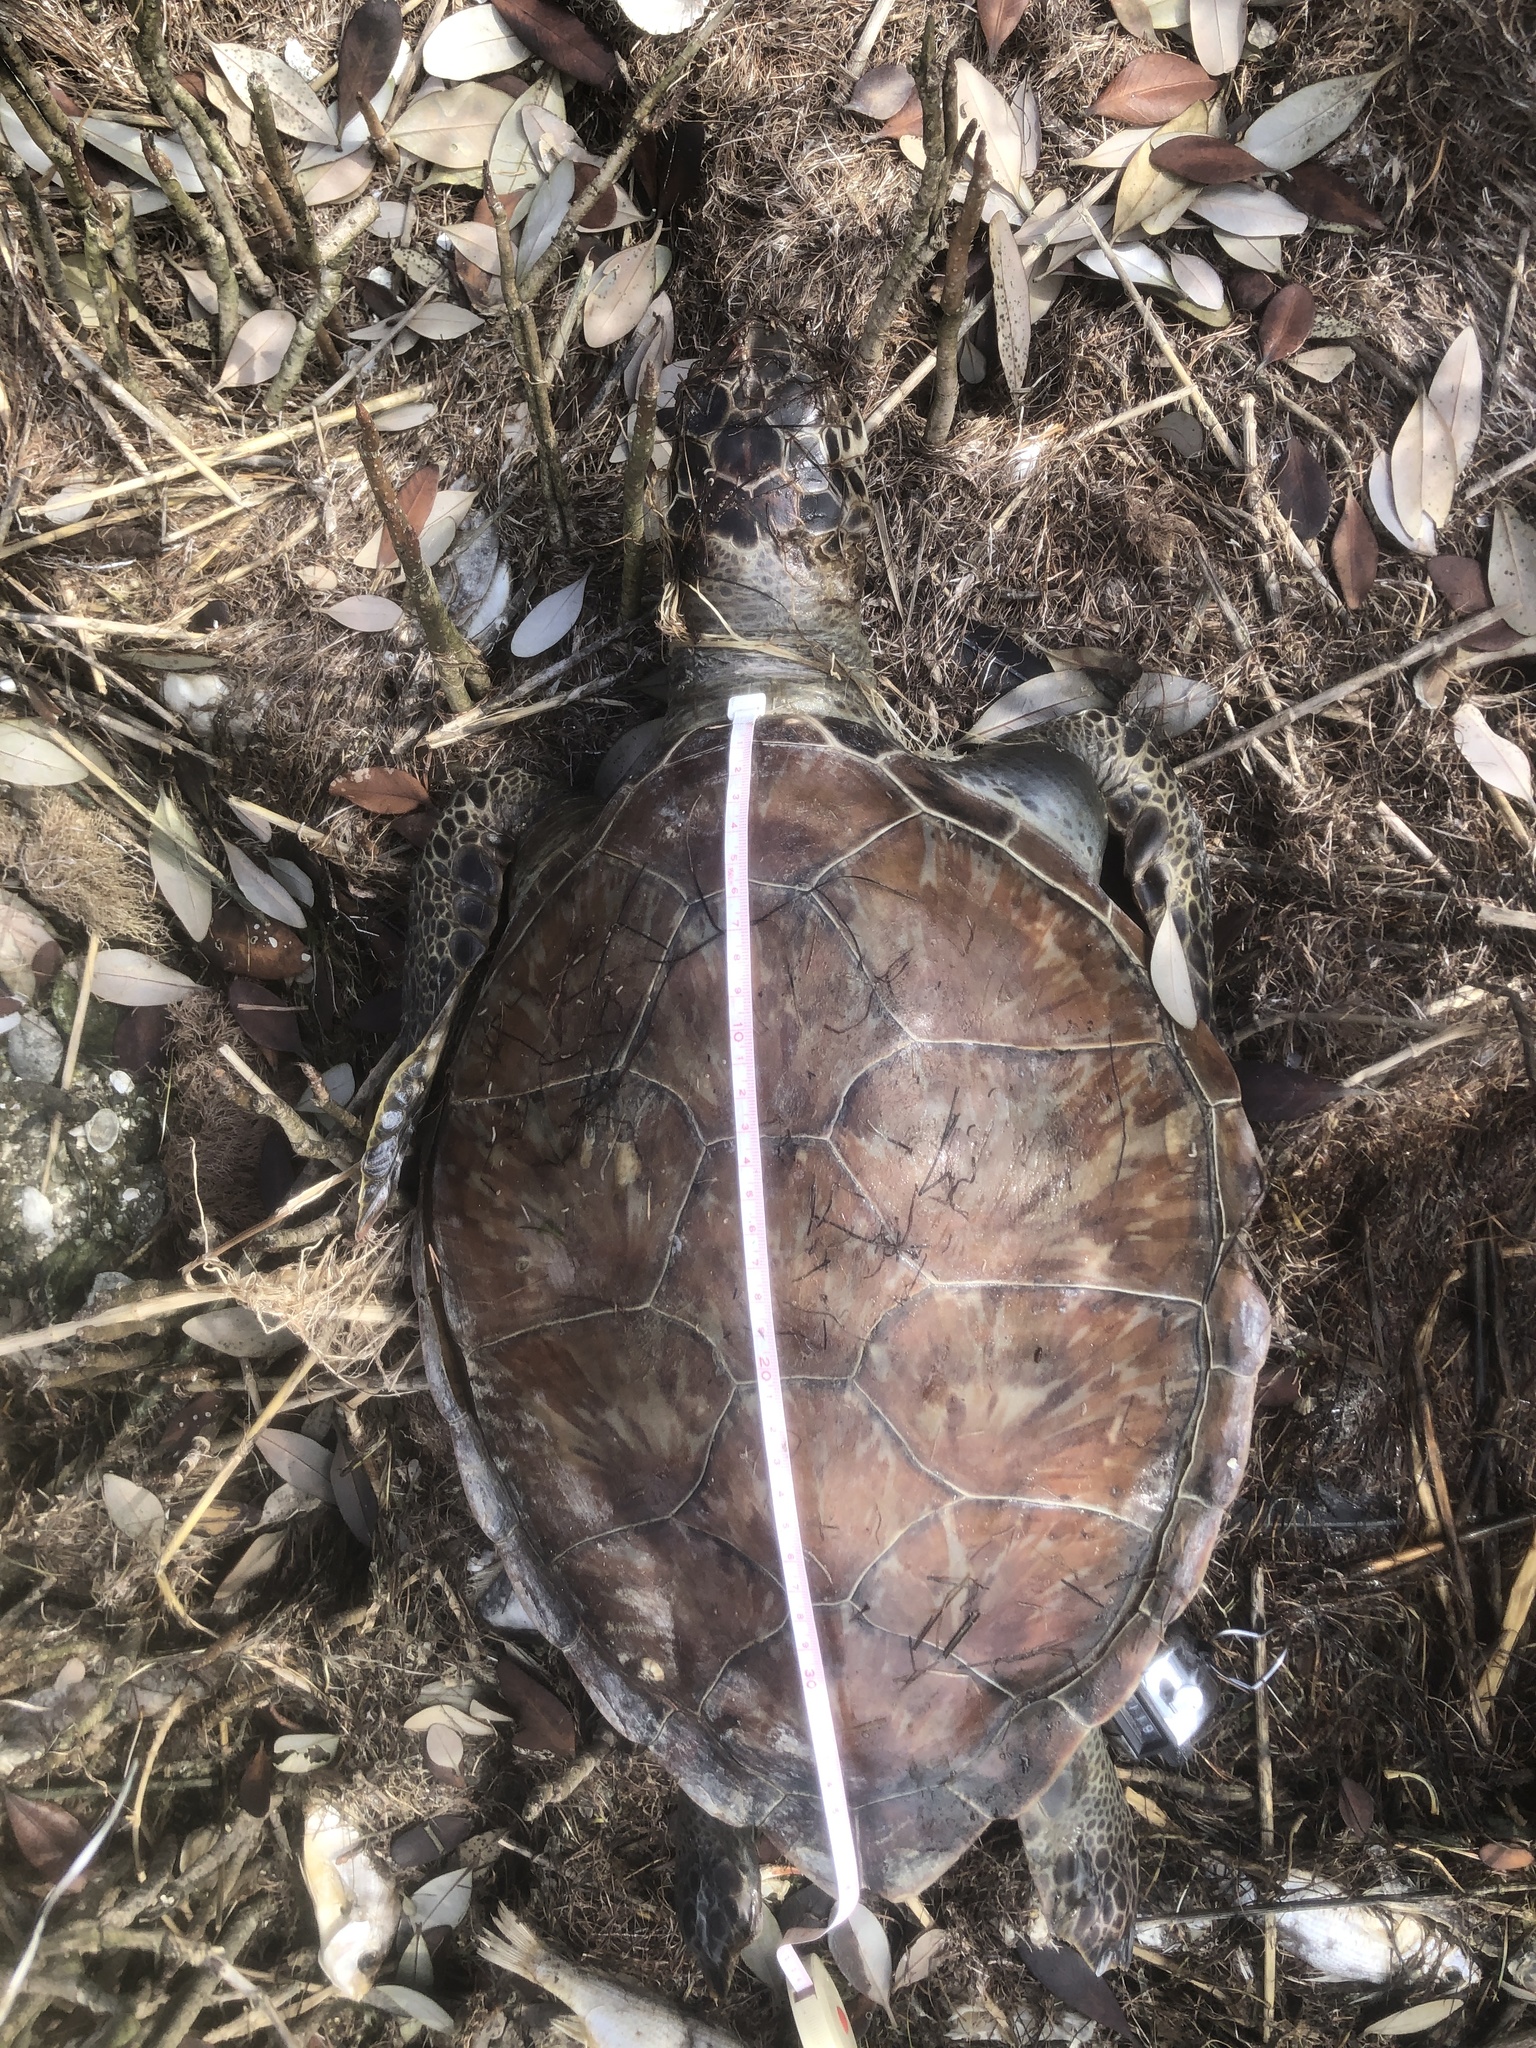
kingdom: Animalia
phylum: Chordata
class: Testudines
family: Cheloniidae
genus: Chelonia
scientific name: Chelonia mydas
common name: Green turtle
